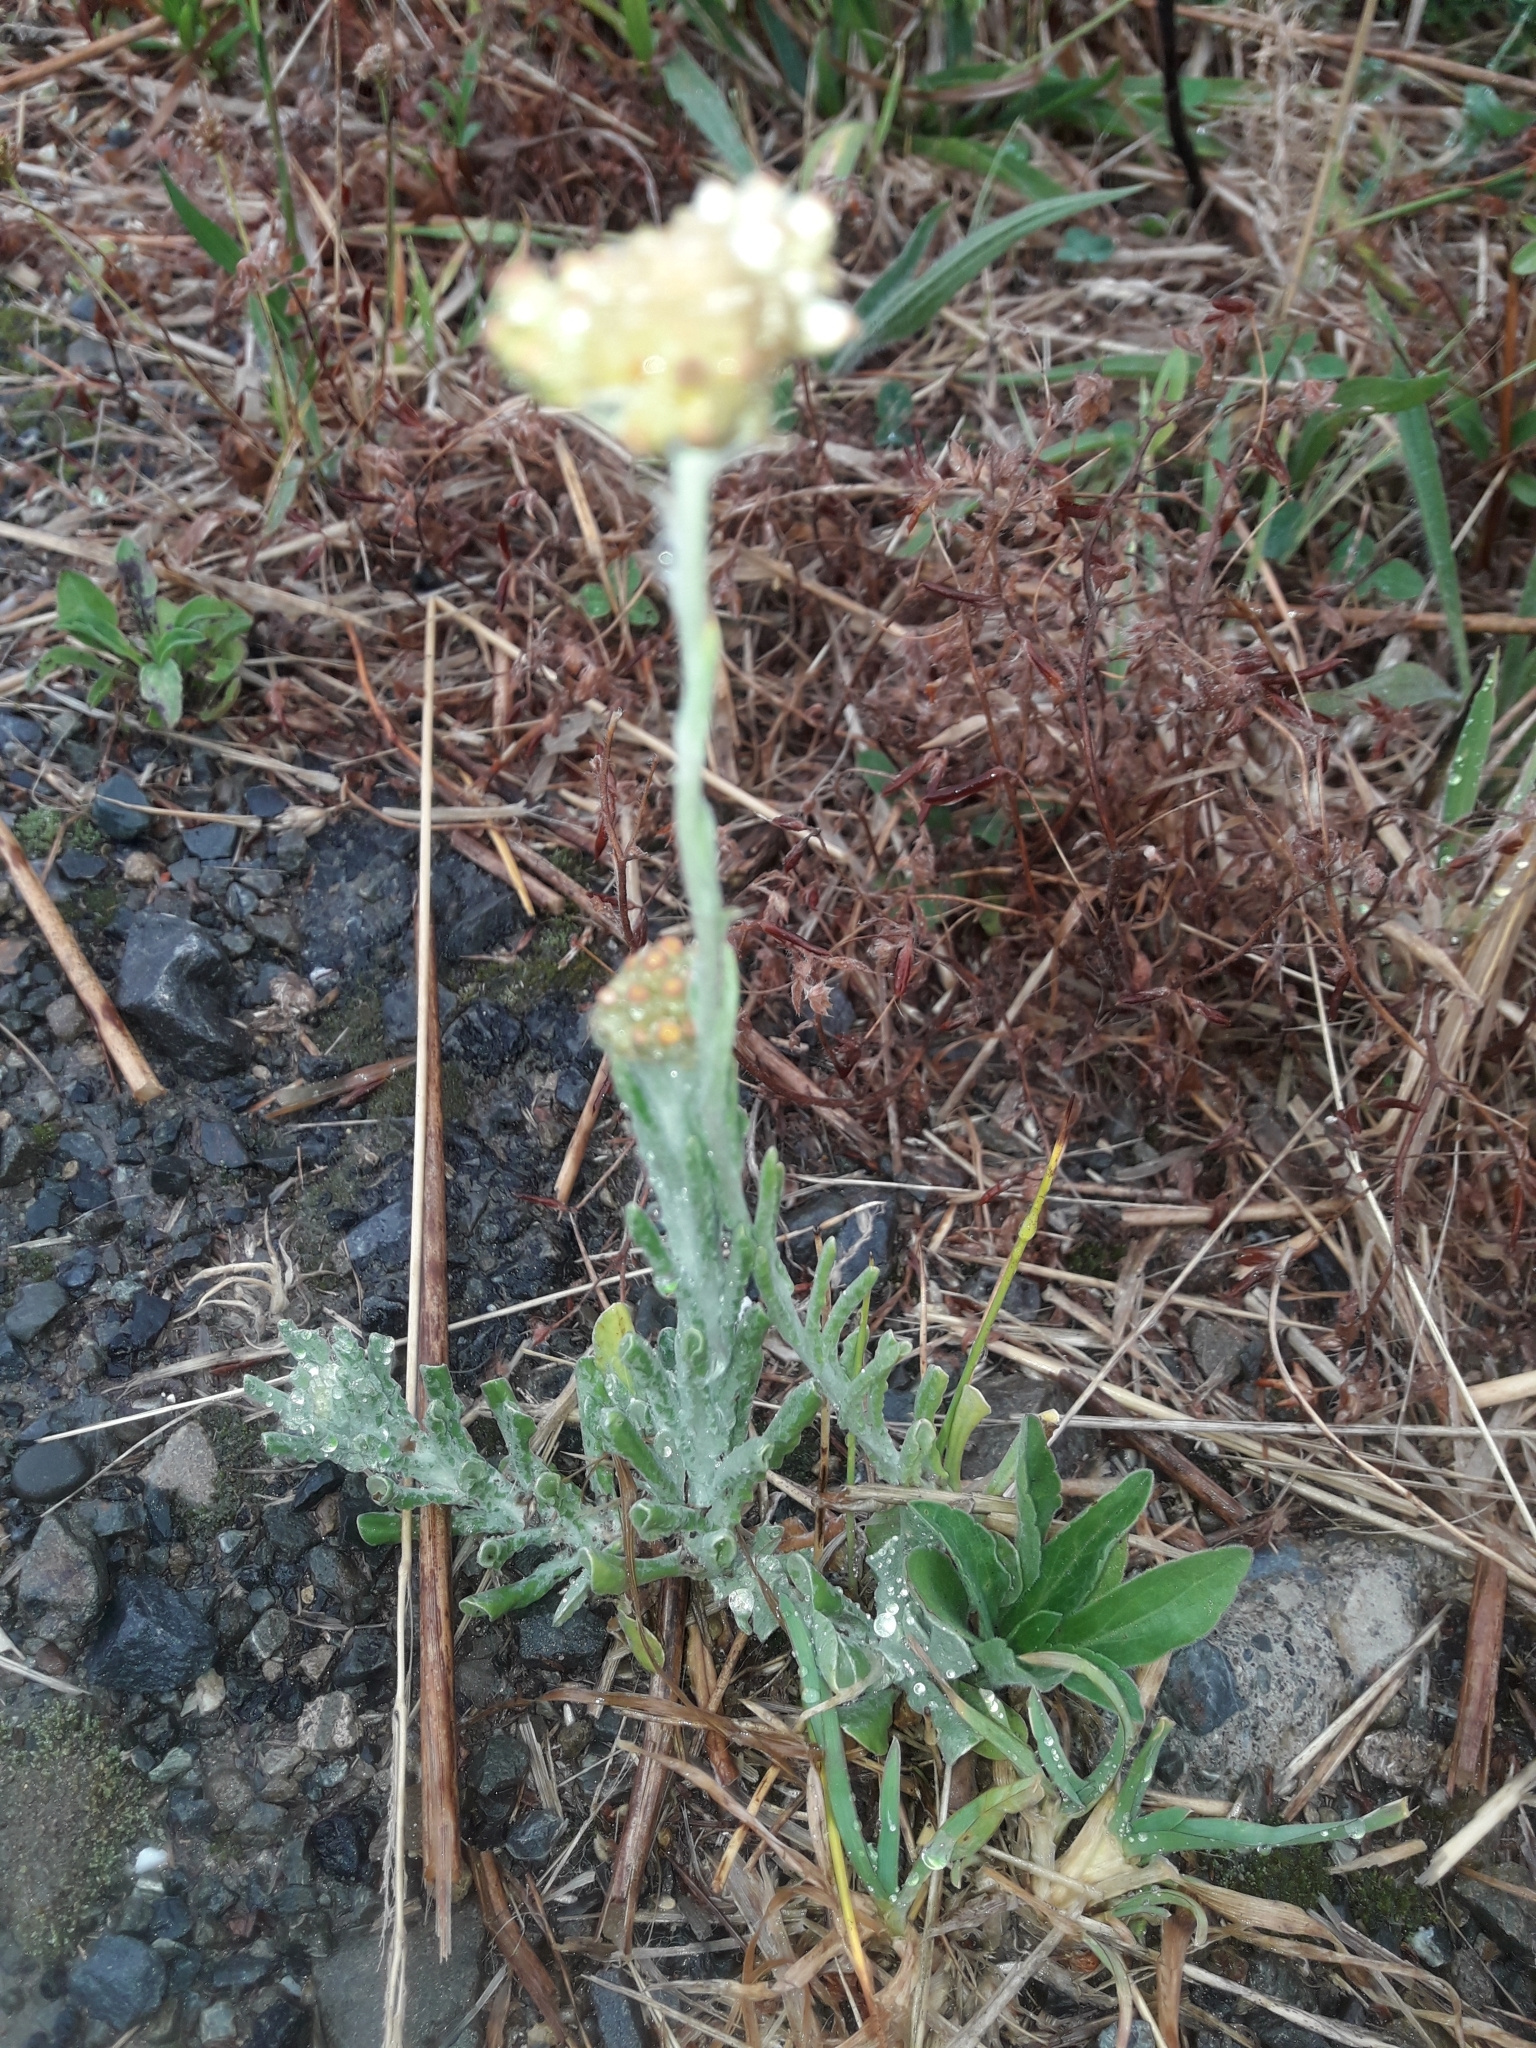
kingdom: Plantae
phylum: Tracheophyta
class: Magnoliopsida
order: Asterales
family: Asteraceae
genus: Helichrysum
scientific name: Helichrysum luteoalbum
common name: Daisy
